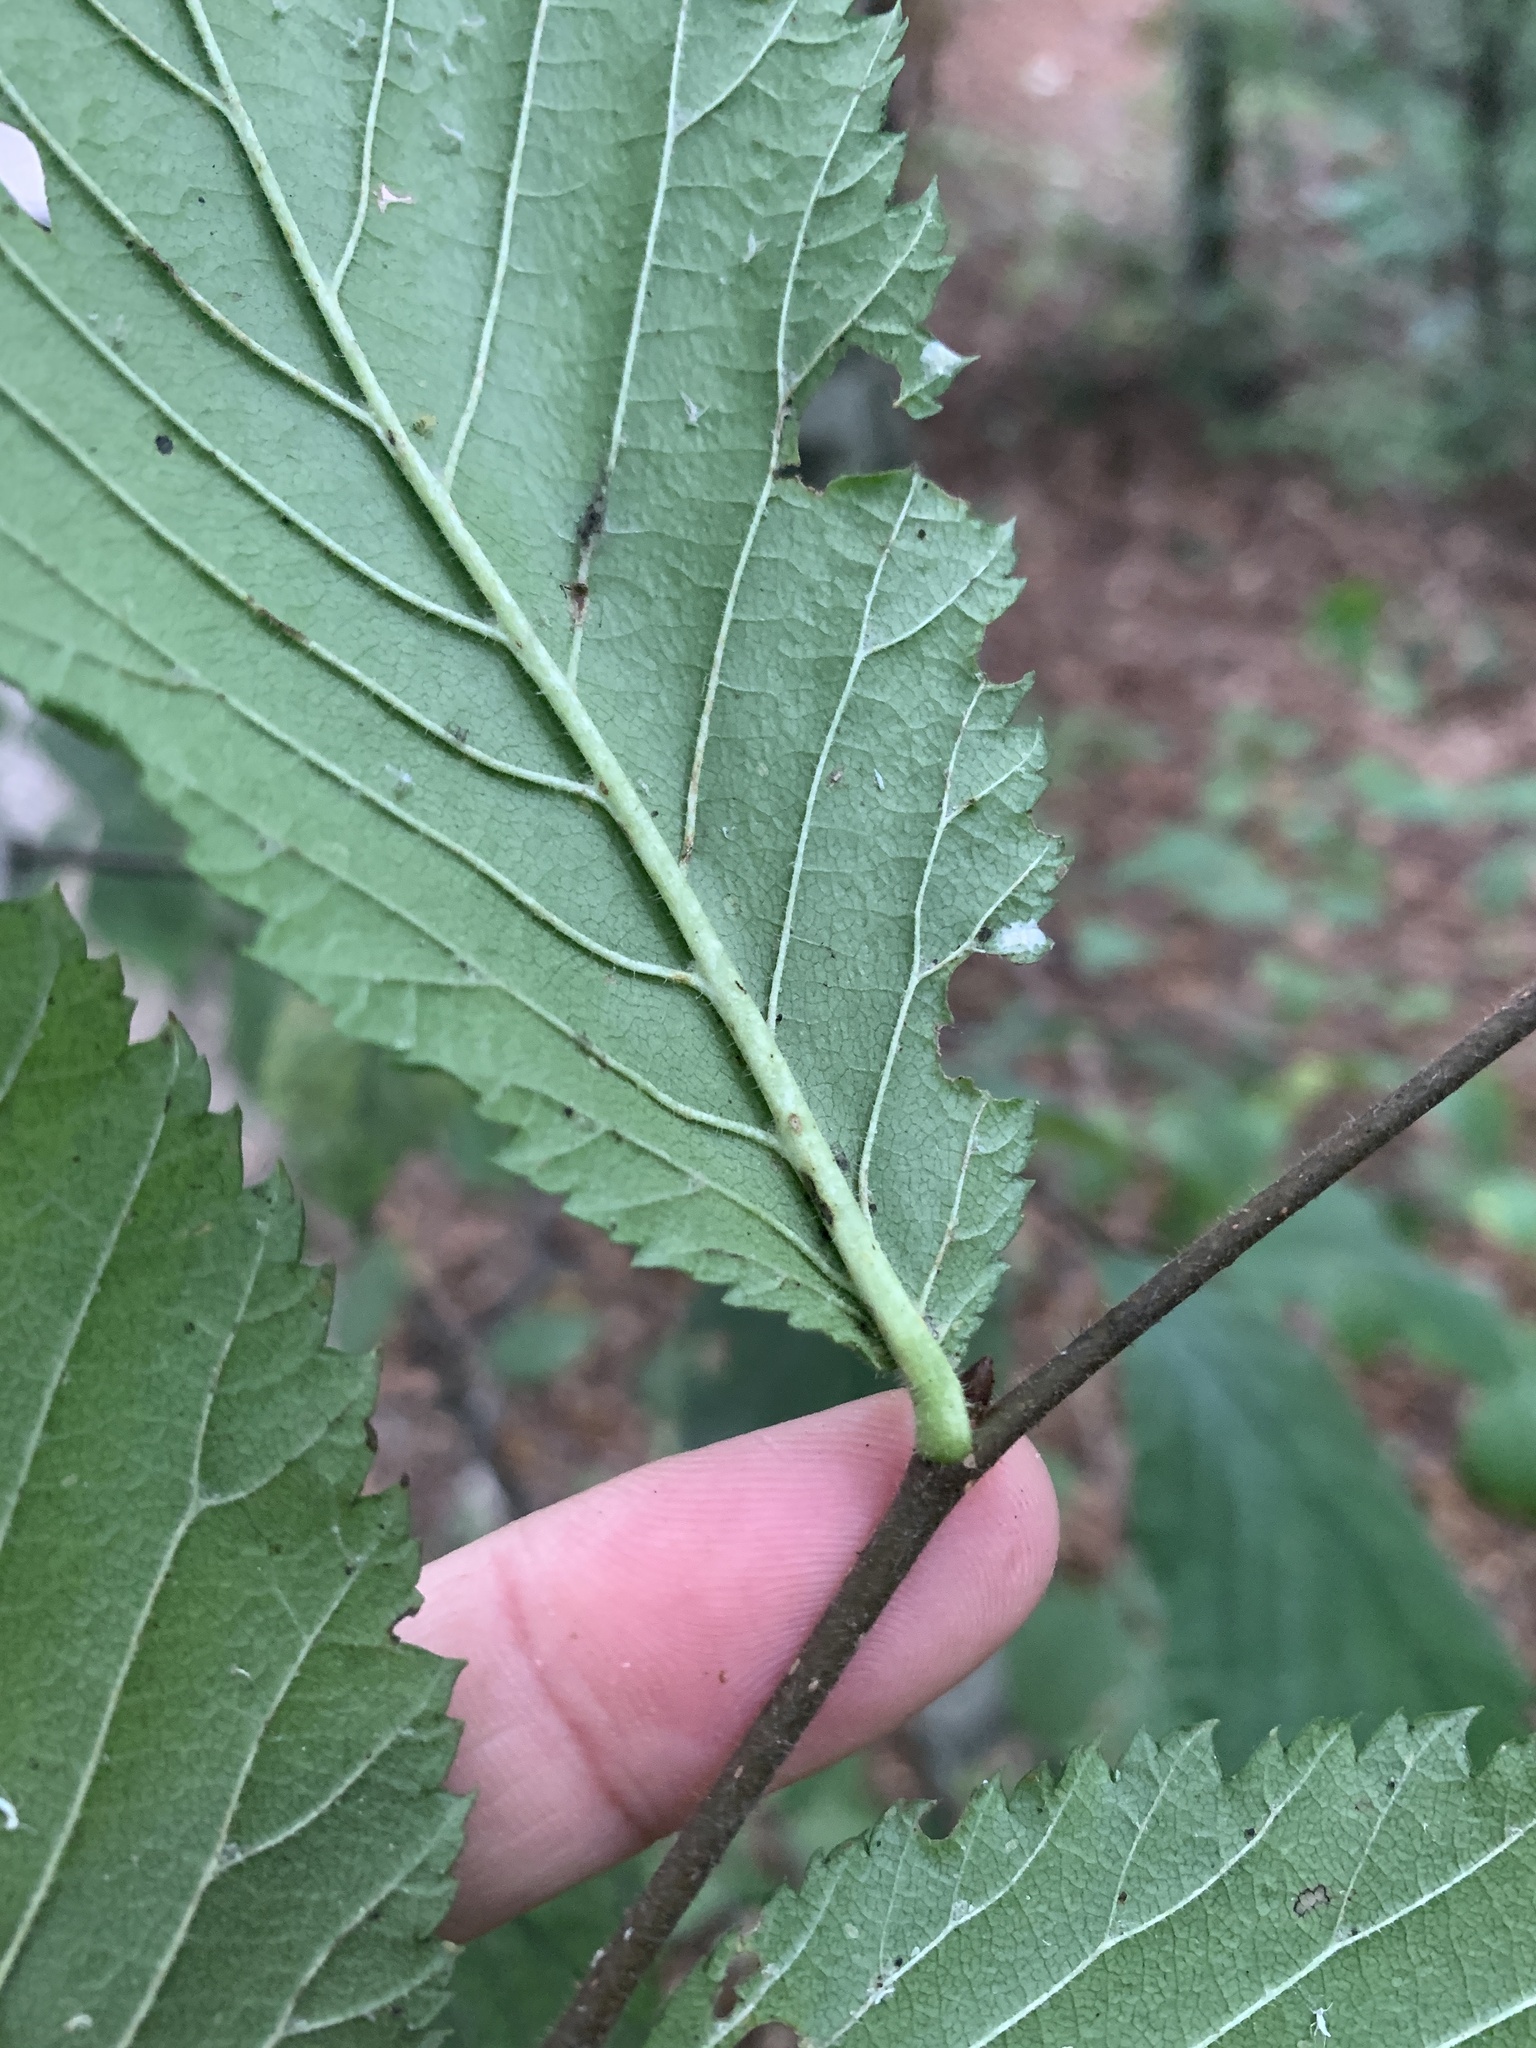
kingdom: Plantae
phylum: Tracheophyta
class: Magnoliopsida
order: Rosales
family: Ulmaceae
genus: Ulmus
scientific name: Ulmus glabra
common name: Wych elm
